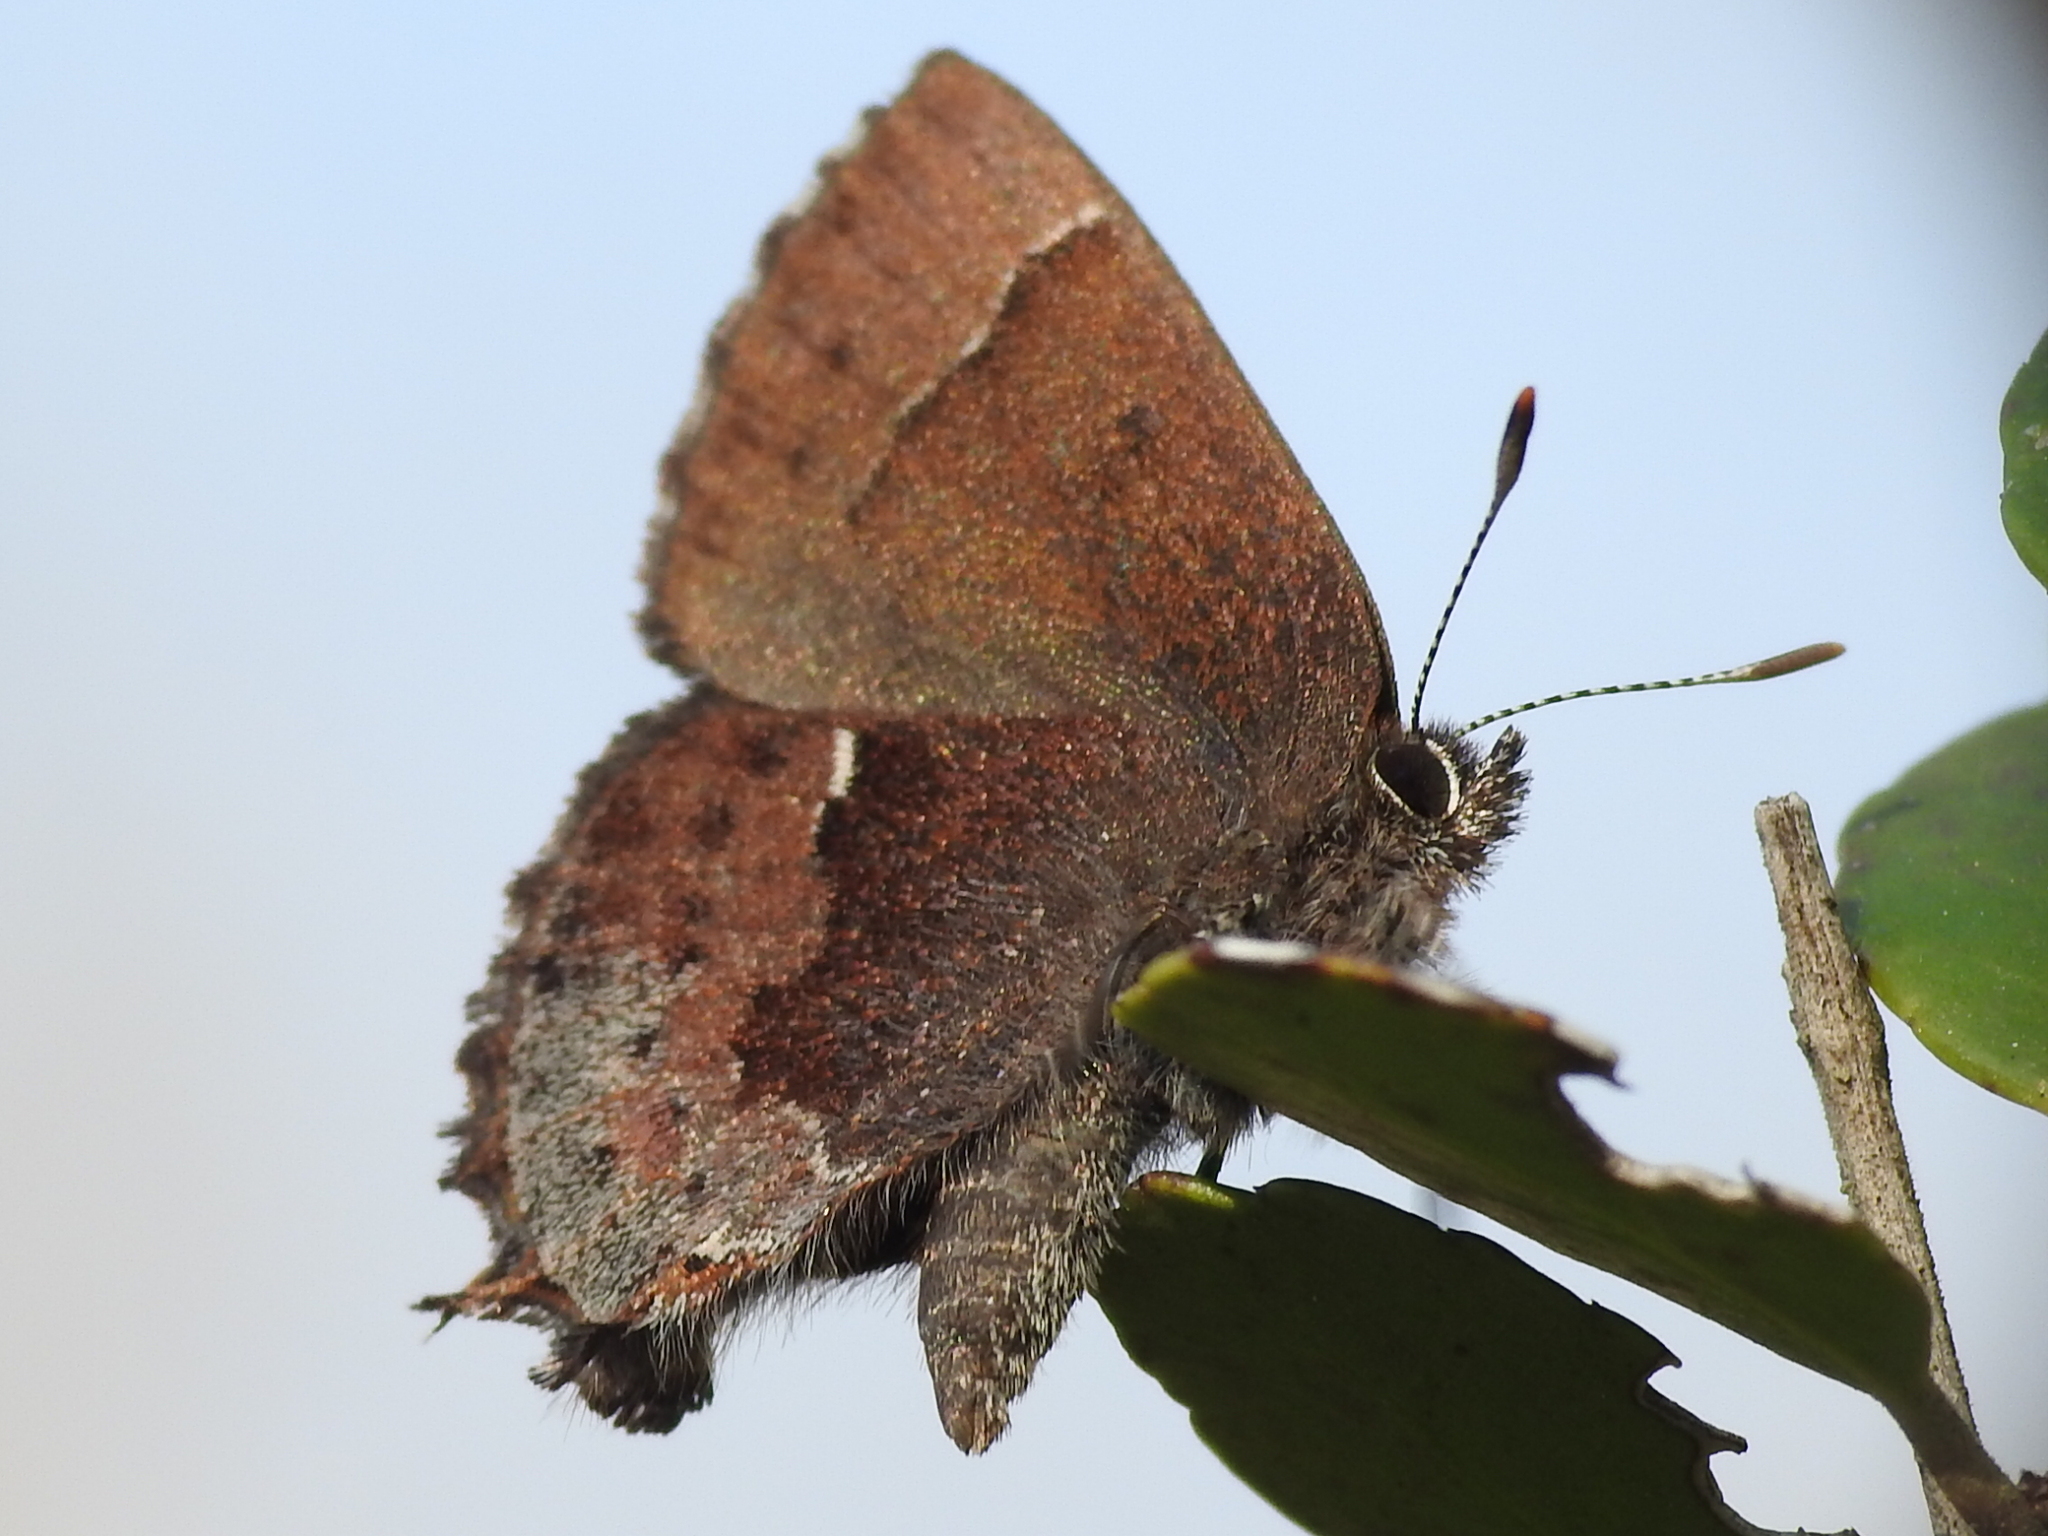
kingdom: Animalia
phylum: Arthropoda
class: Insecta
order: Lepidoptera
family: Lycaenidae
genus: Incisalia
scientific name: Incisalia henrici
